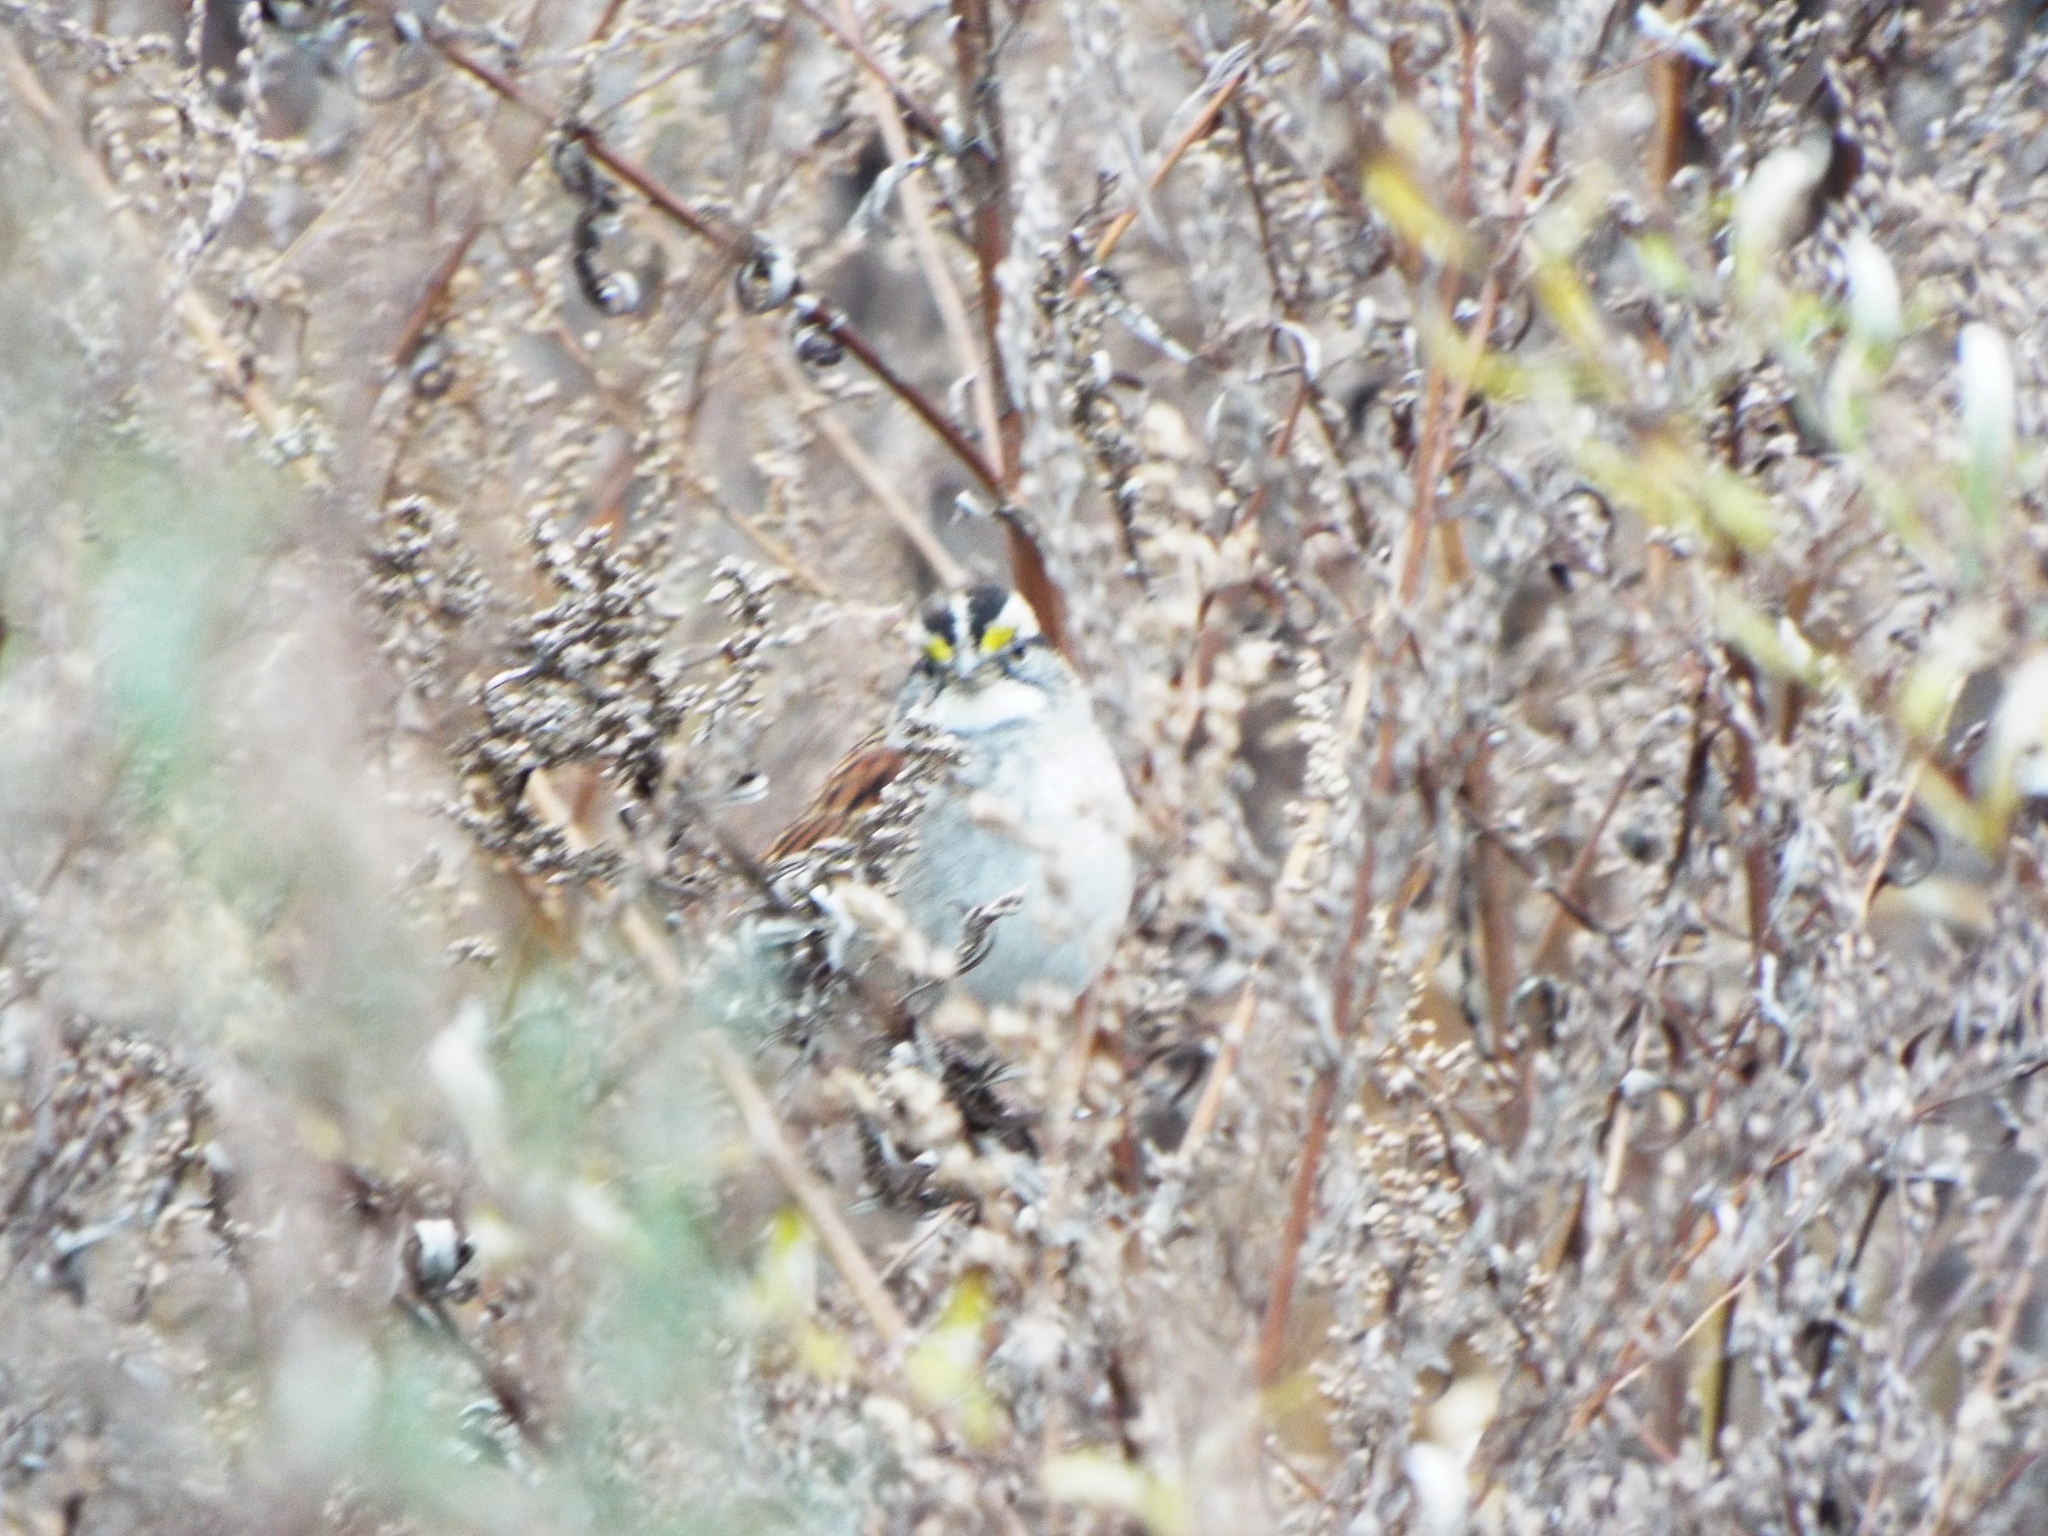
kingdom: Animalia
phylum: Chordata
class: Aves
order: Passeriformes
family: Passerellidae
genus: Zonotrichia
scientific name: Zonotrichia albicollis
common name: White-throated sparrow
